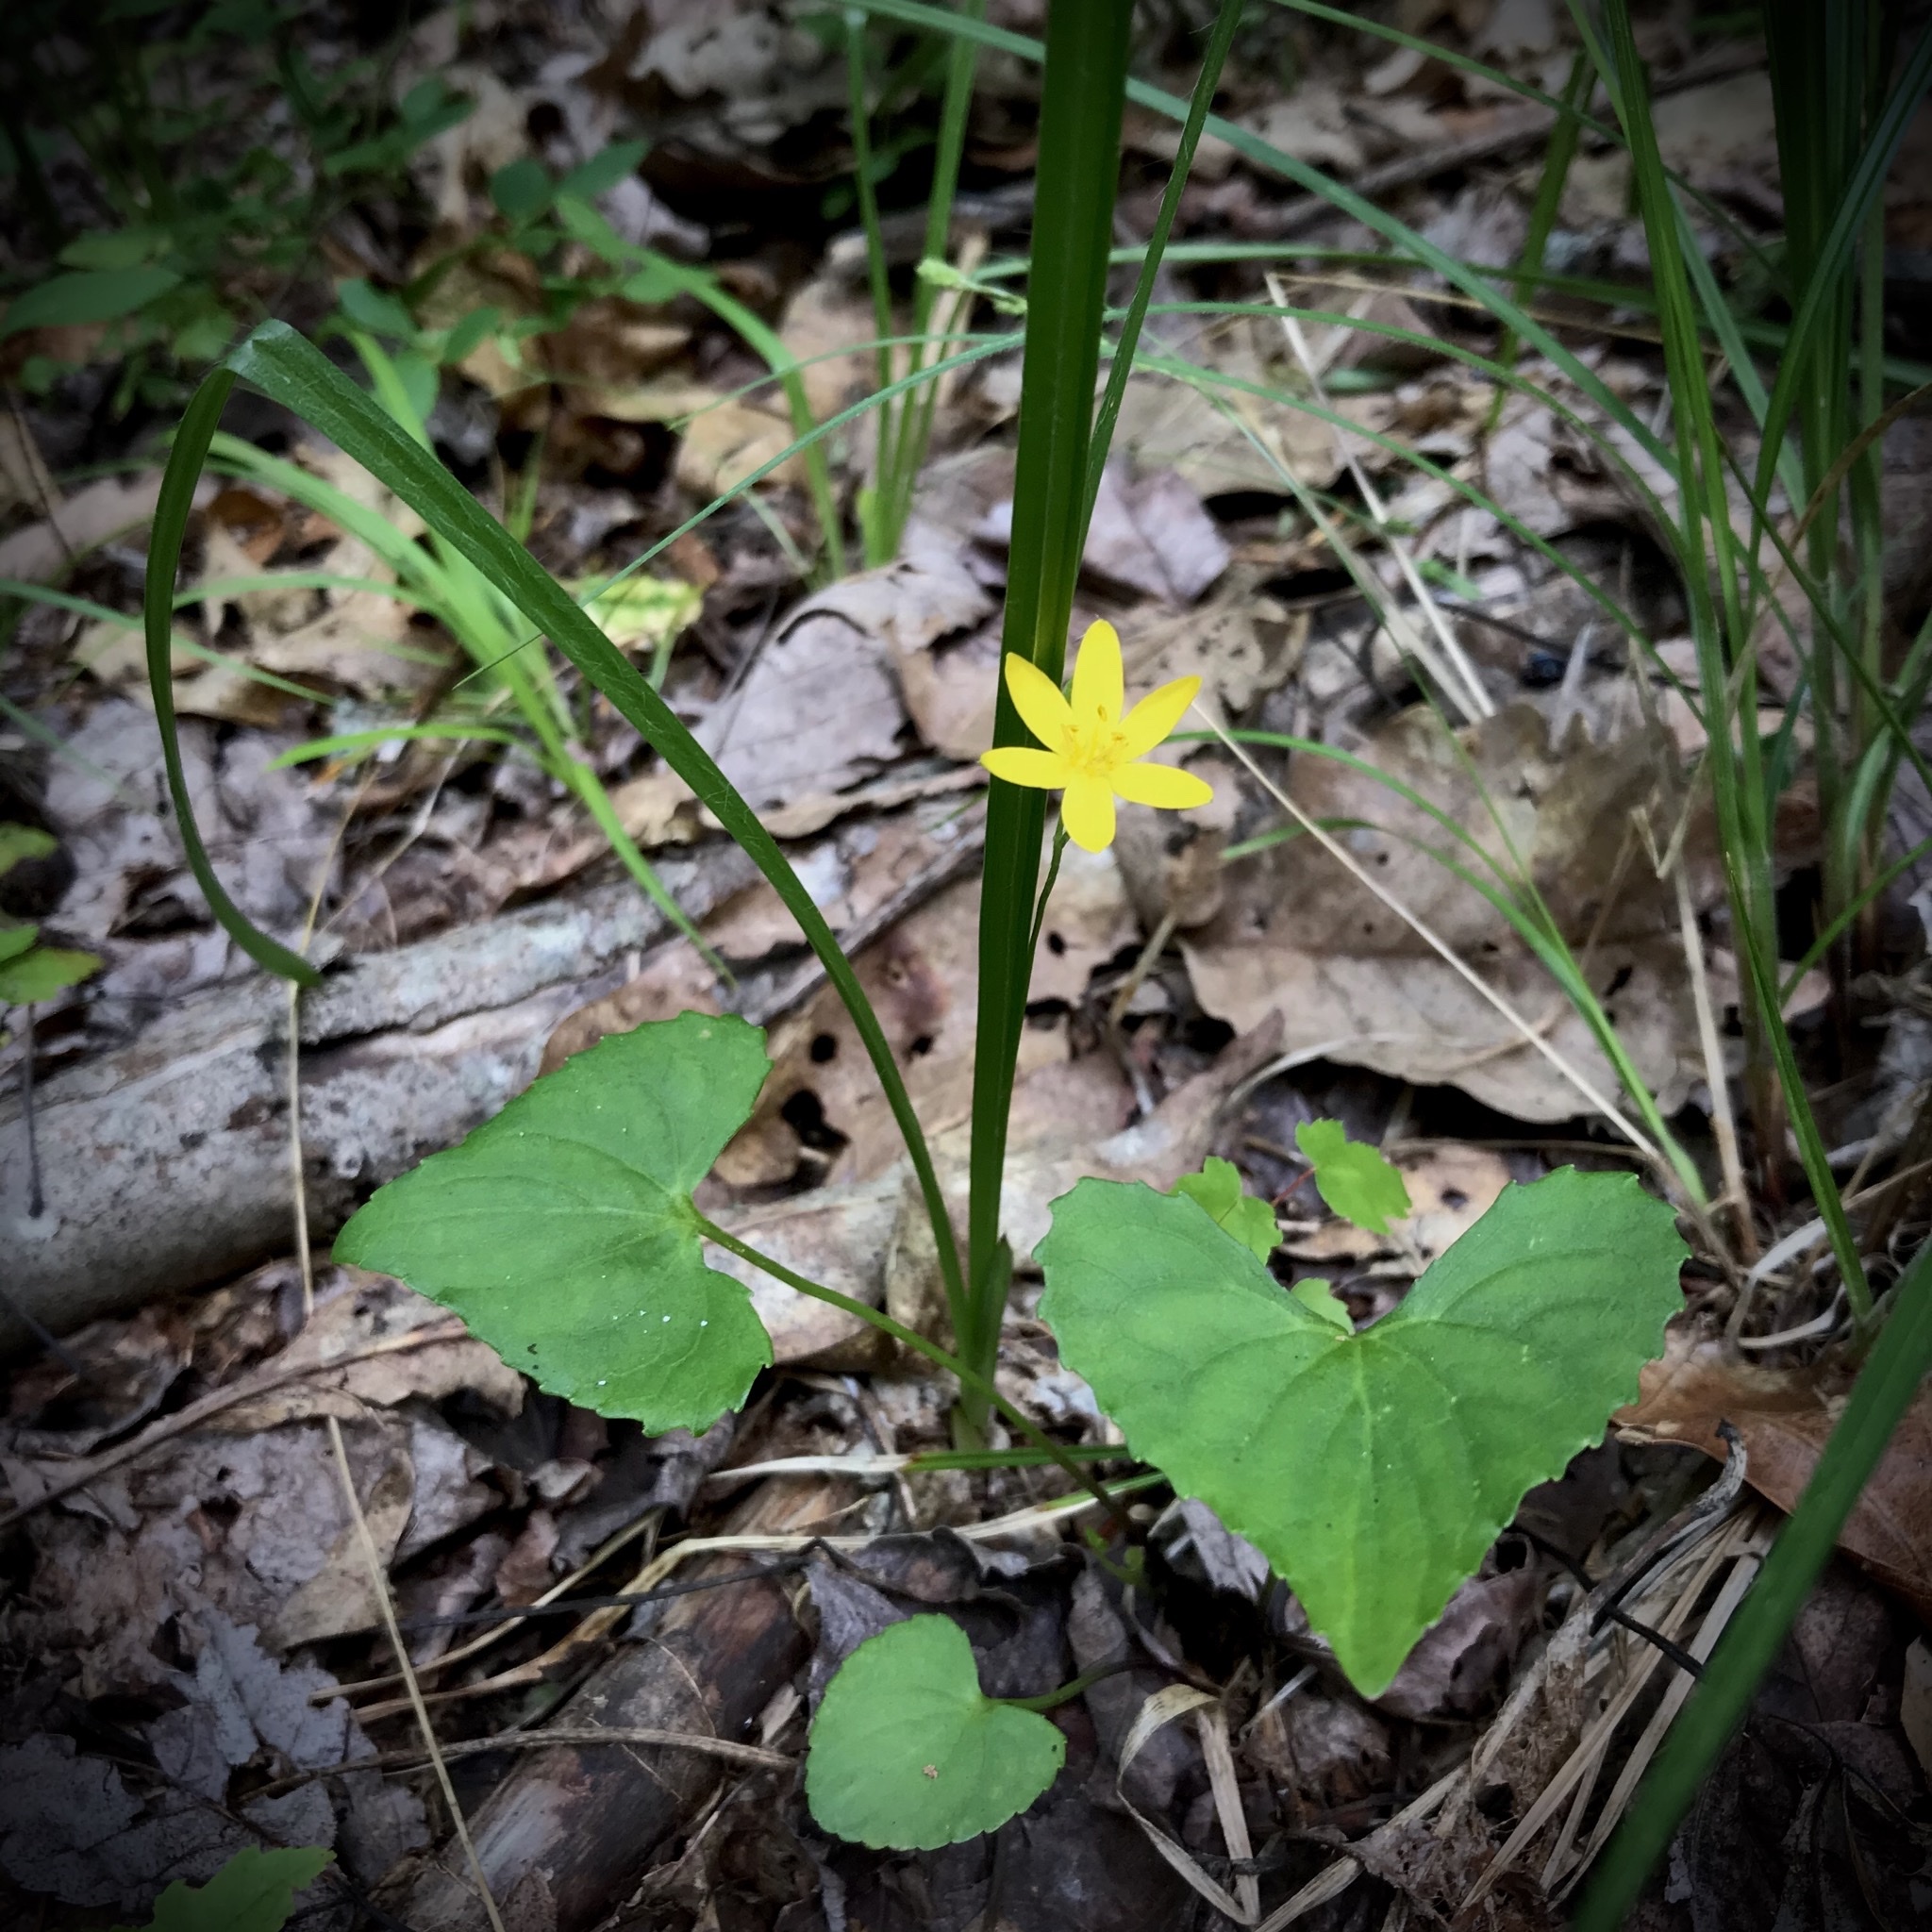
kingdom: Plantae
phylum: Tracheophyta
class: Liliopsida
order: Asparagales
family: Hypoxidaceae
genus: Hypoxis
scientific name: Hypoxis hirsuta
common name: Common goldstar
